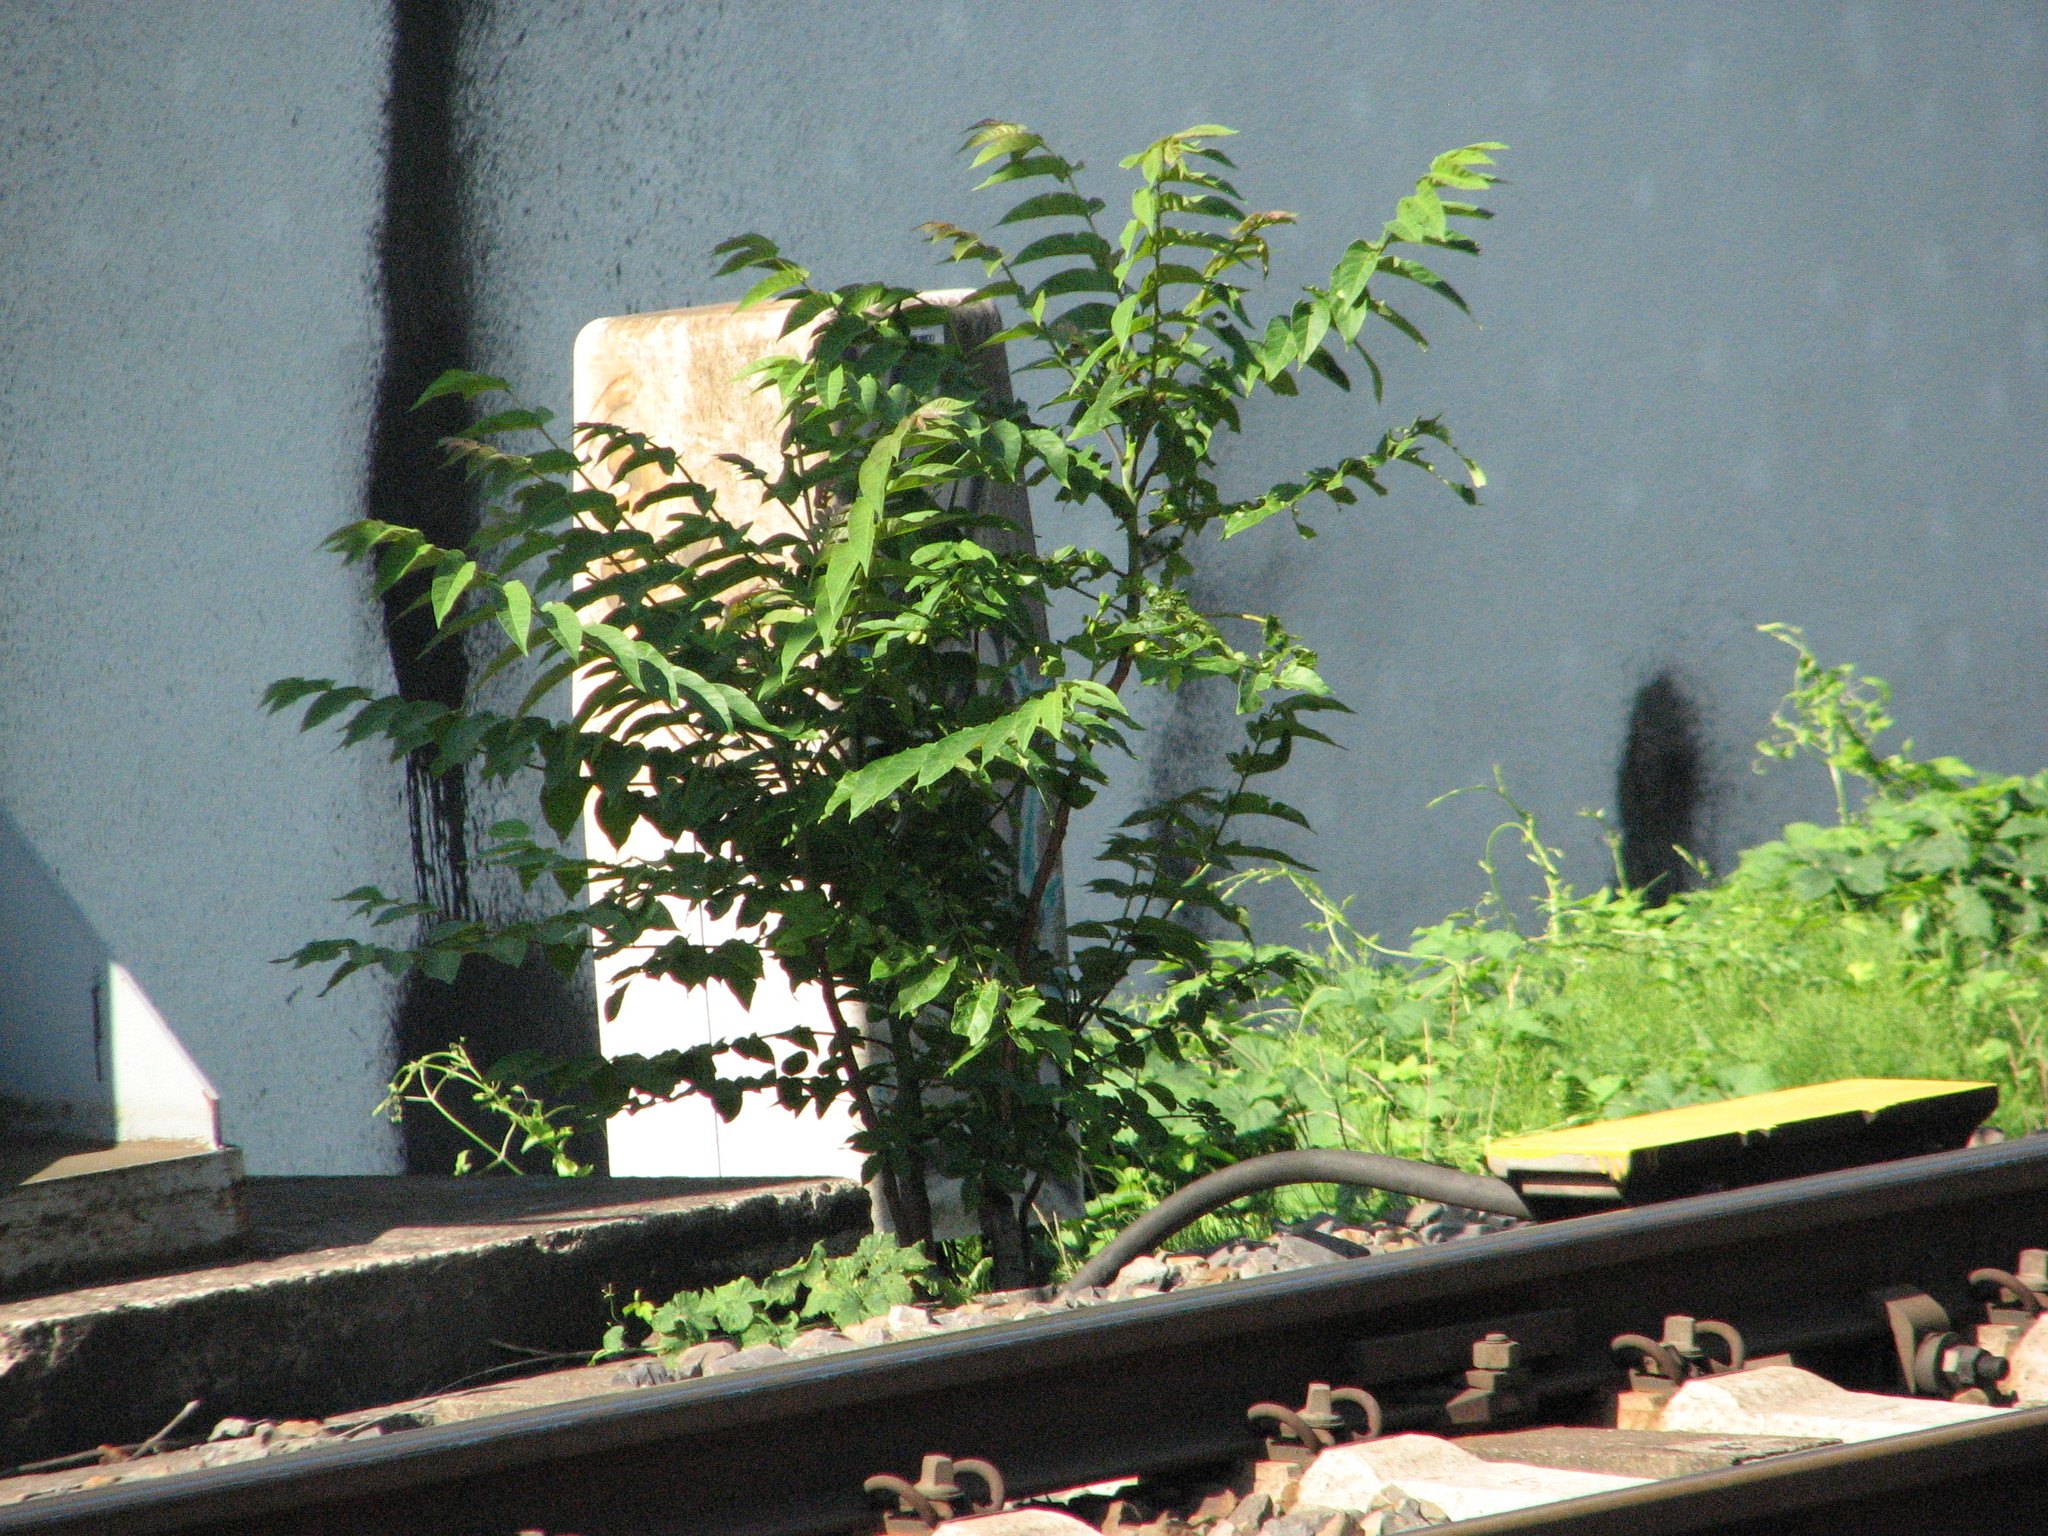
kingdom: Plantae
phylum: Tracheophyta
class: Magnoliopsida
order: Sapindales
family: Simaroubaceae
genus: Ailanthus
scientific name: Ailanthus altissima
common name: Tree-of-heaven
